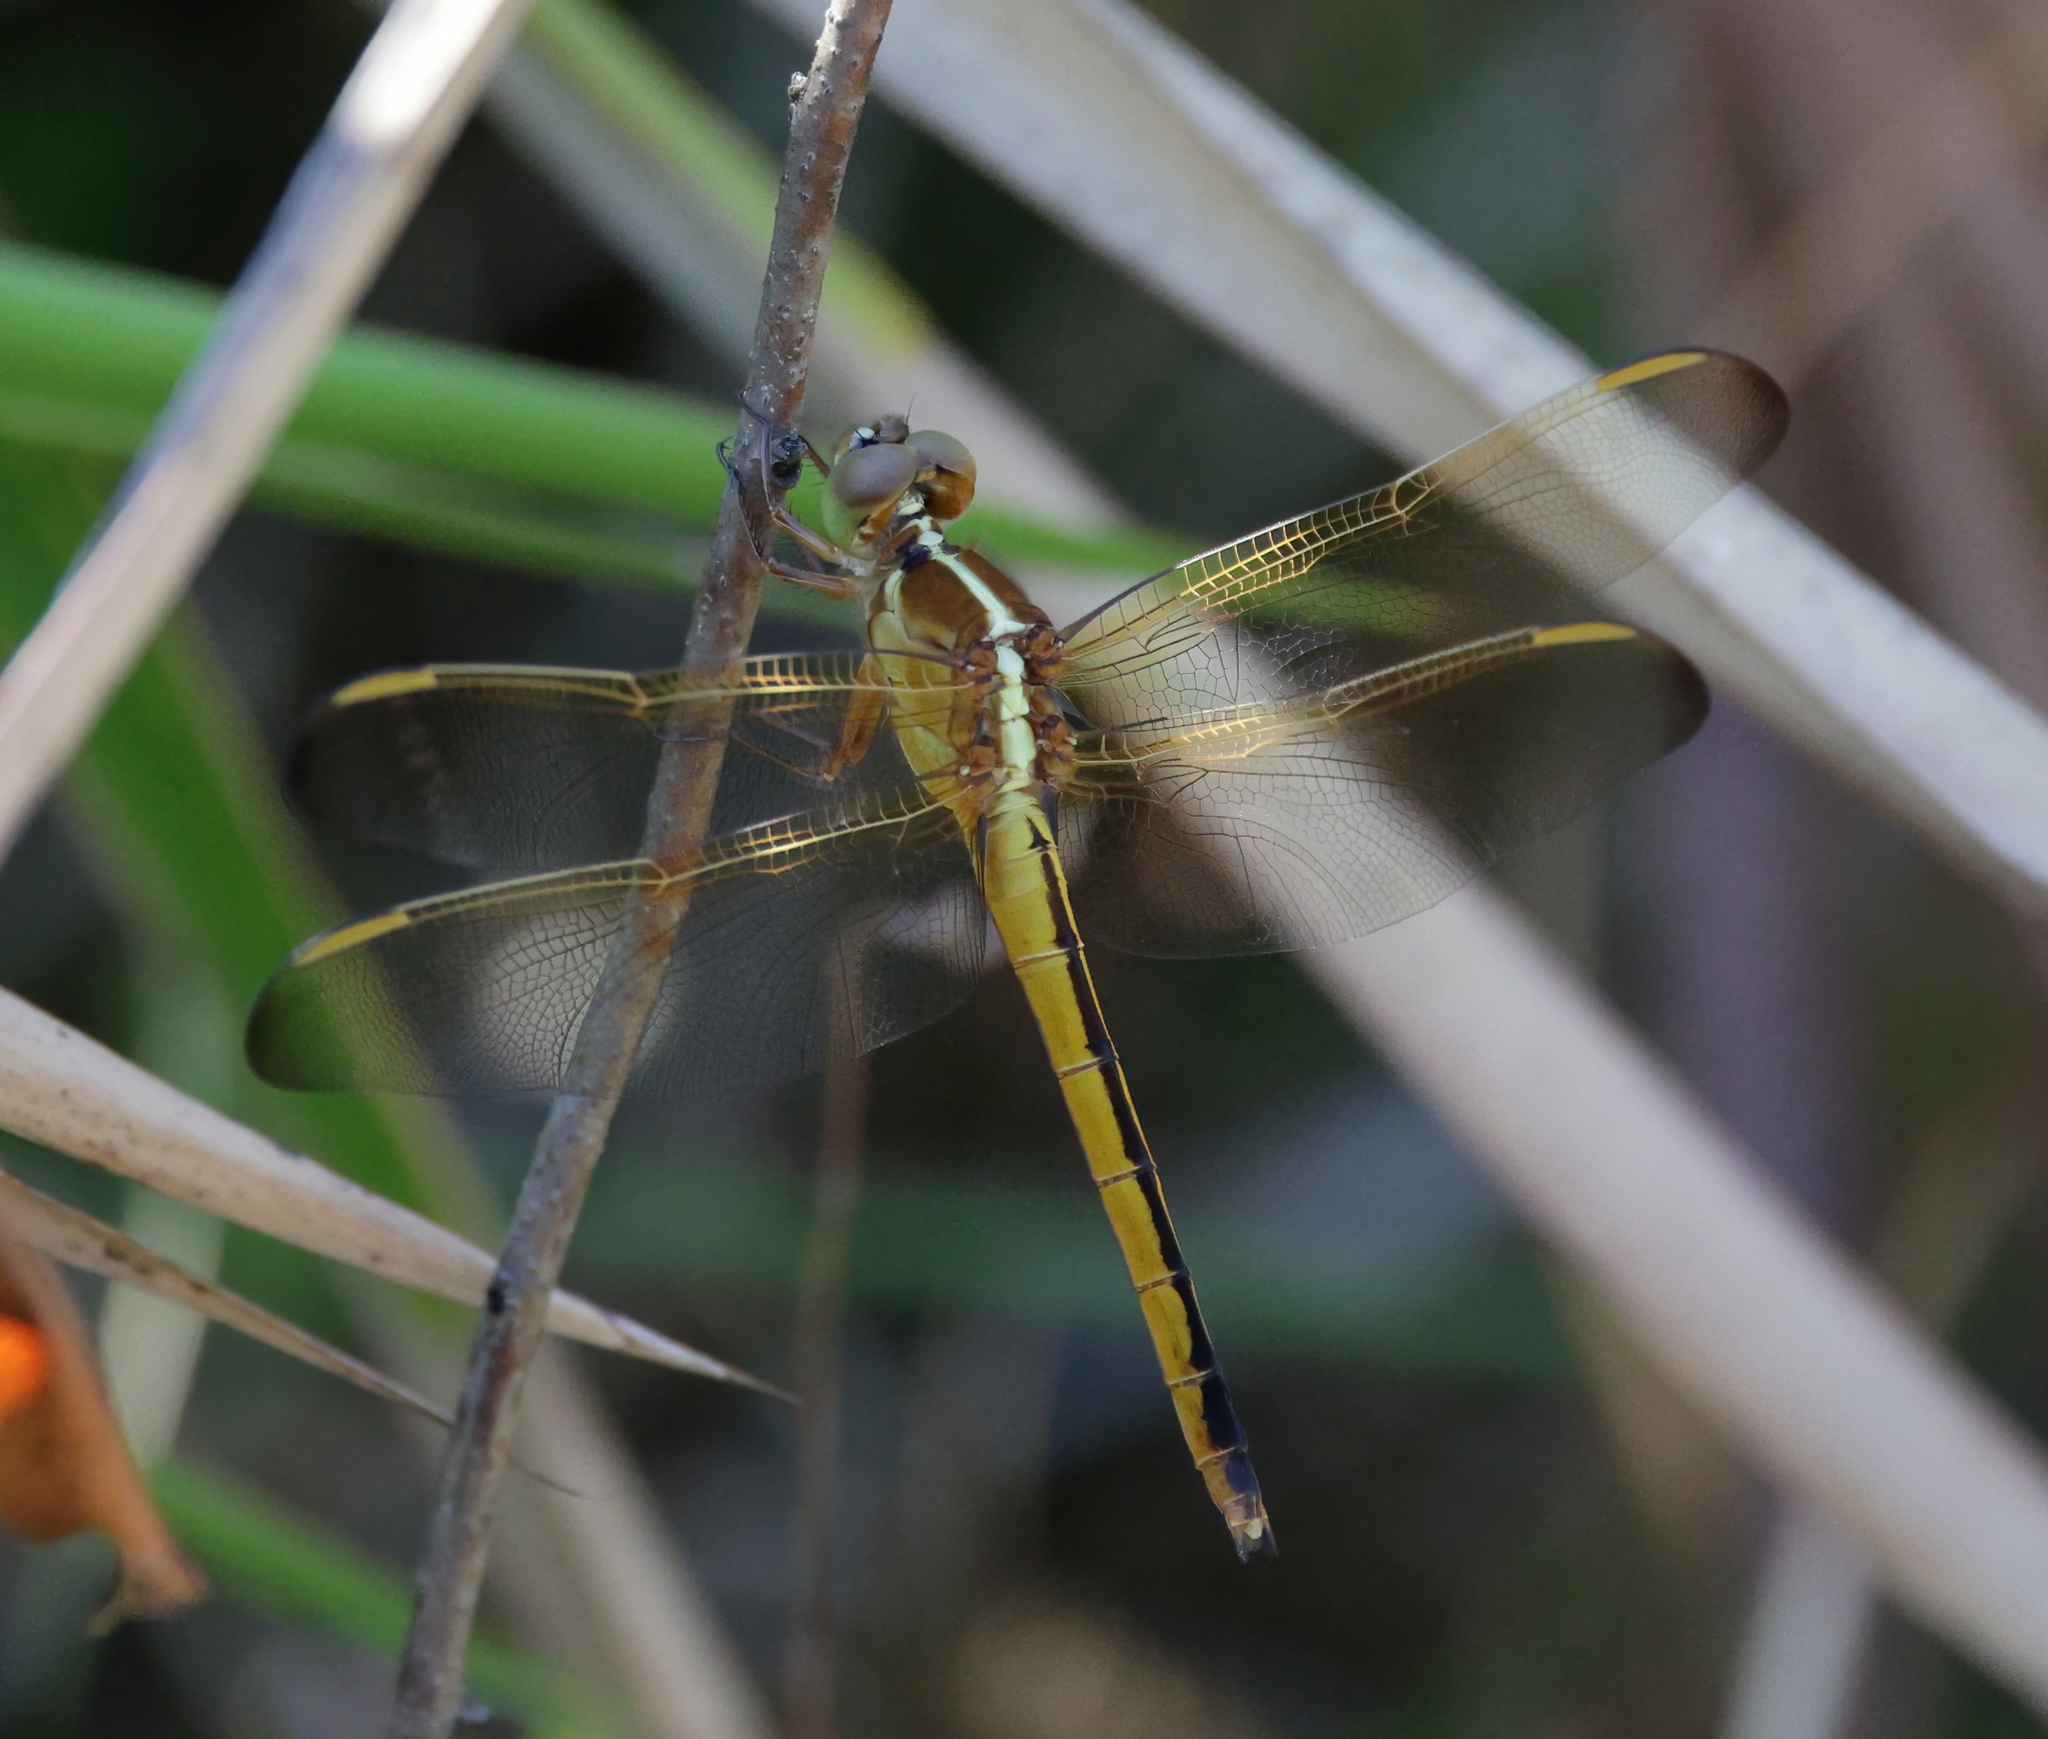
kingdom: Animalia
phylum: Arthropoda
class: Insecta
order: Odonata
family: Libellulidae
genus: Libellula
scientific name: Libellula needhami
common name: Needham's skimmer
